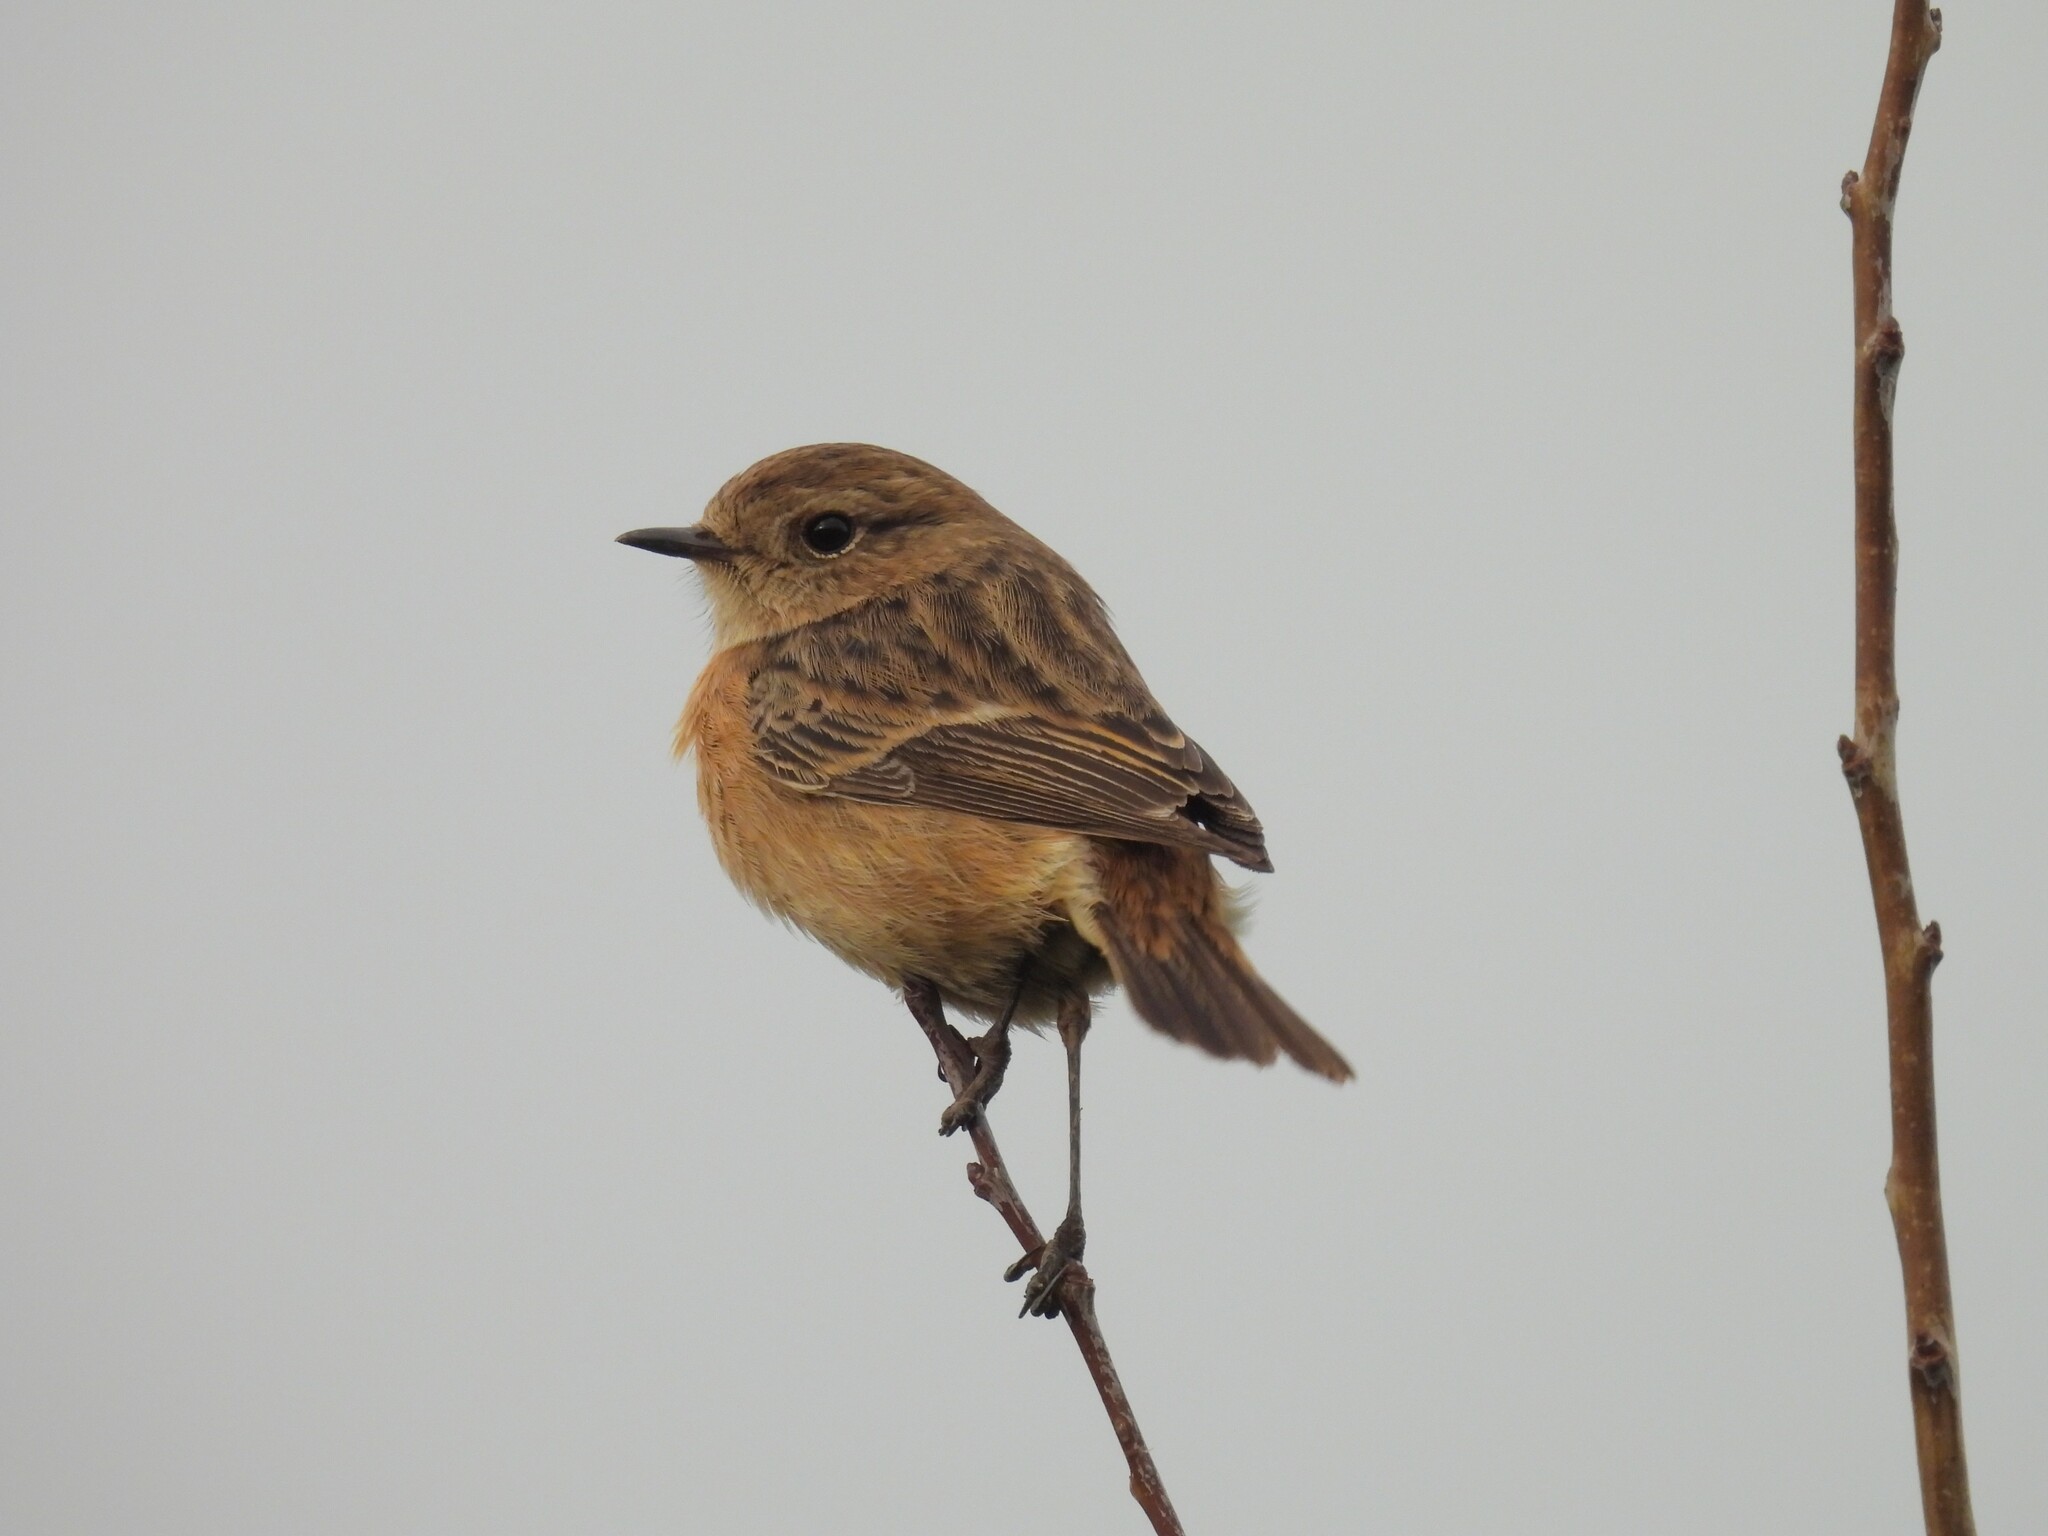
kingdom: Animalia
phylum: Chordata
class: Aves
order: Passeriformes
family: Muscicapidae
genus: Saxicola
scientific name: Saxicola rubicola
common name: European stonechat
